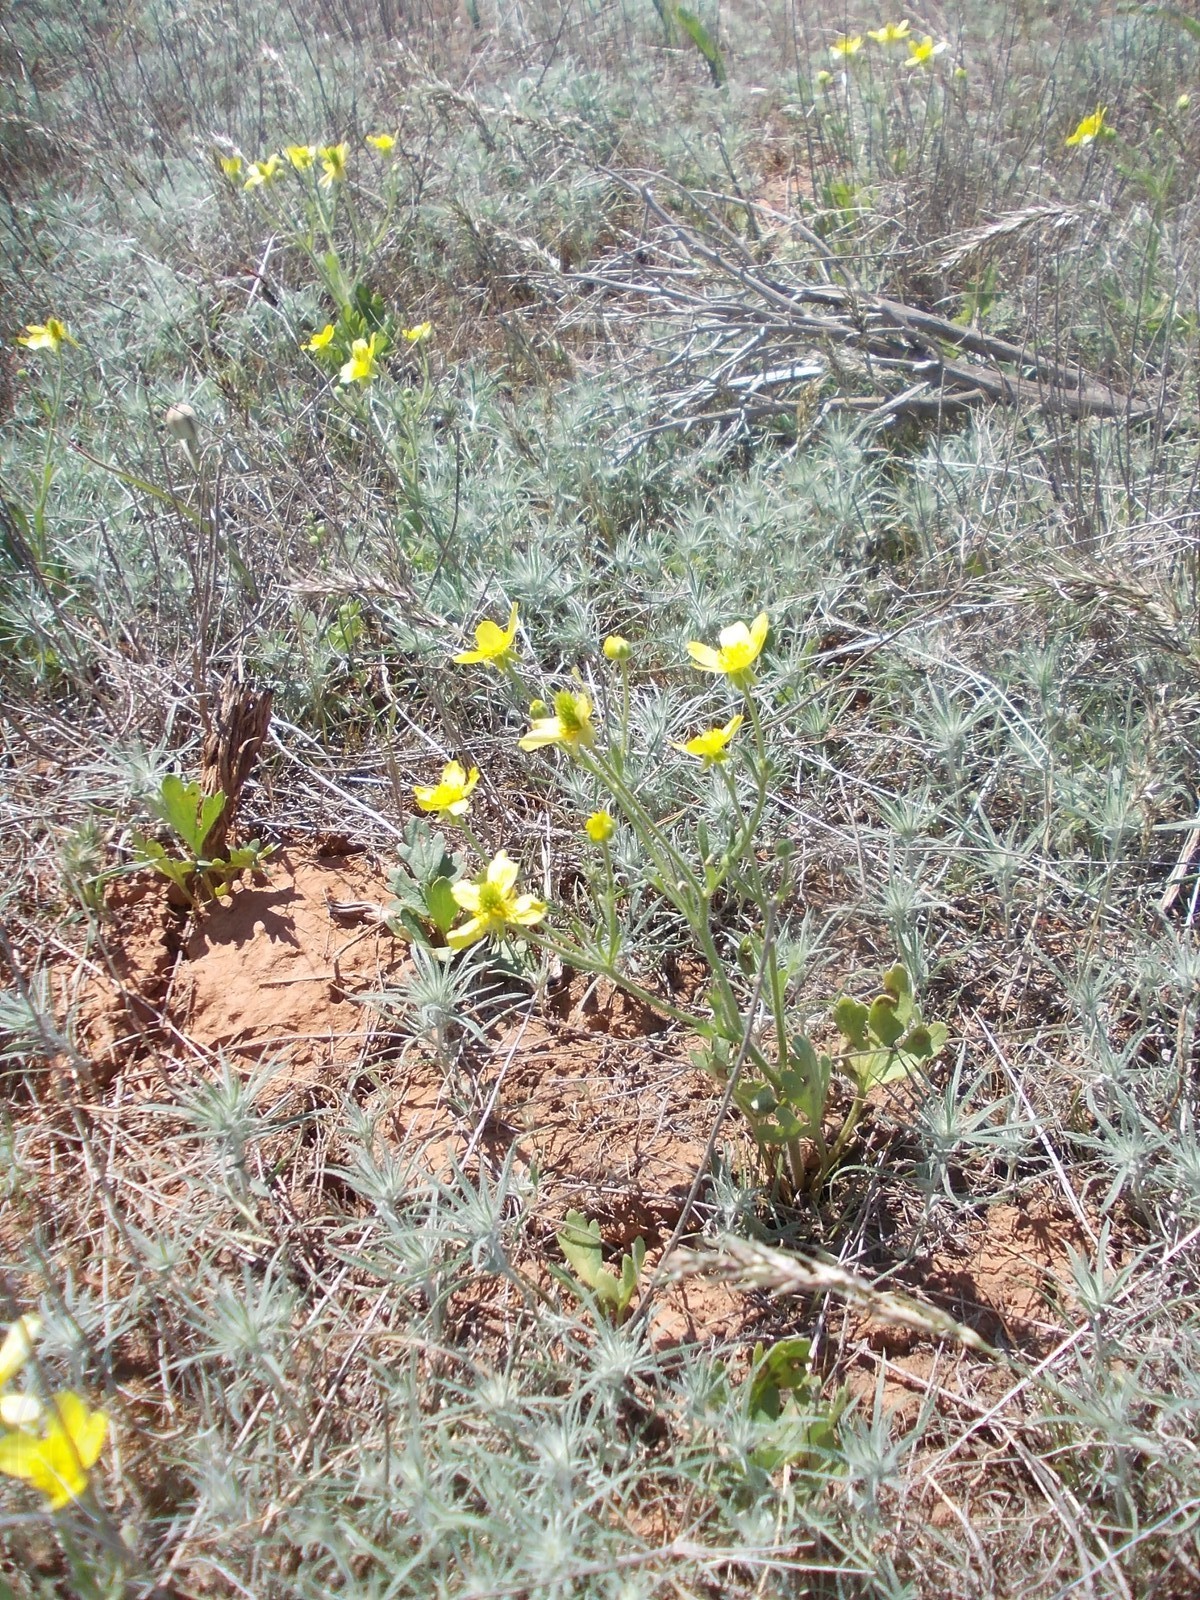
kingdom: Plantae
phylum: Tracheophyta
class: Magnoliopsida
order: Ranunculales
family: Ranunculaceae
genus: Ranunculus
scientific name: Ranunculus oxyspermus
